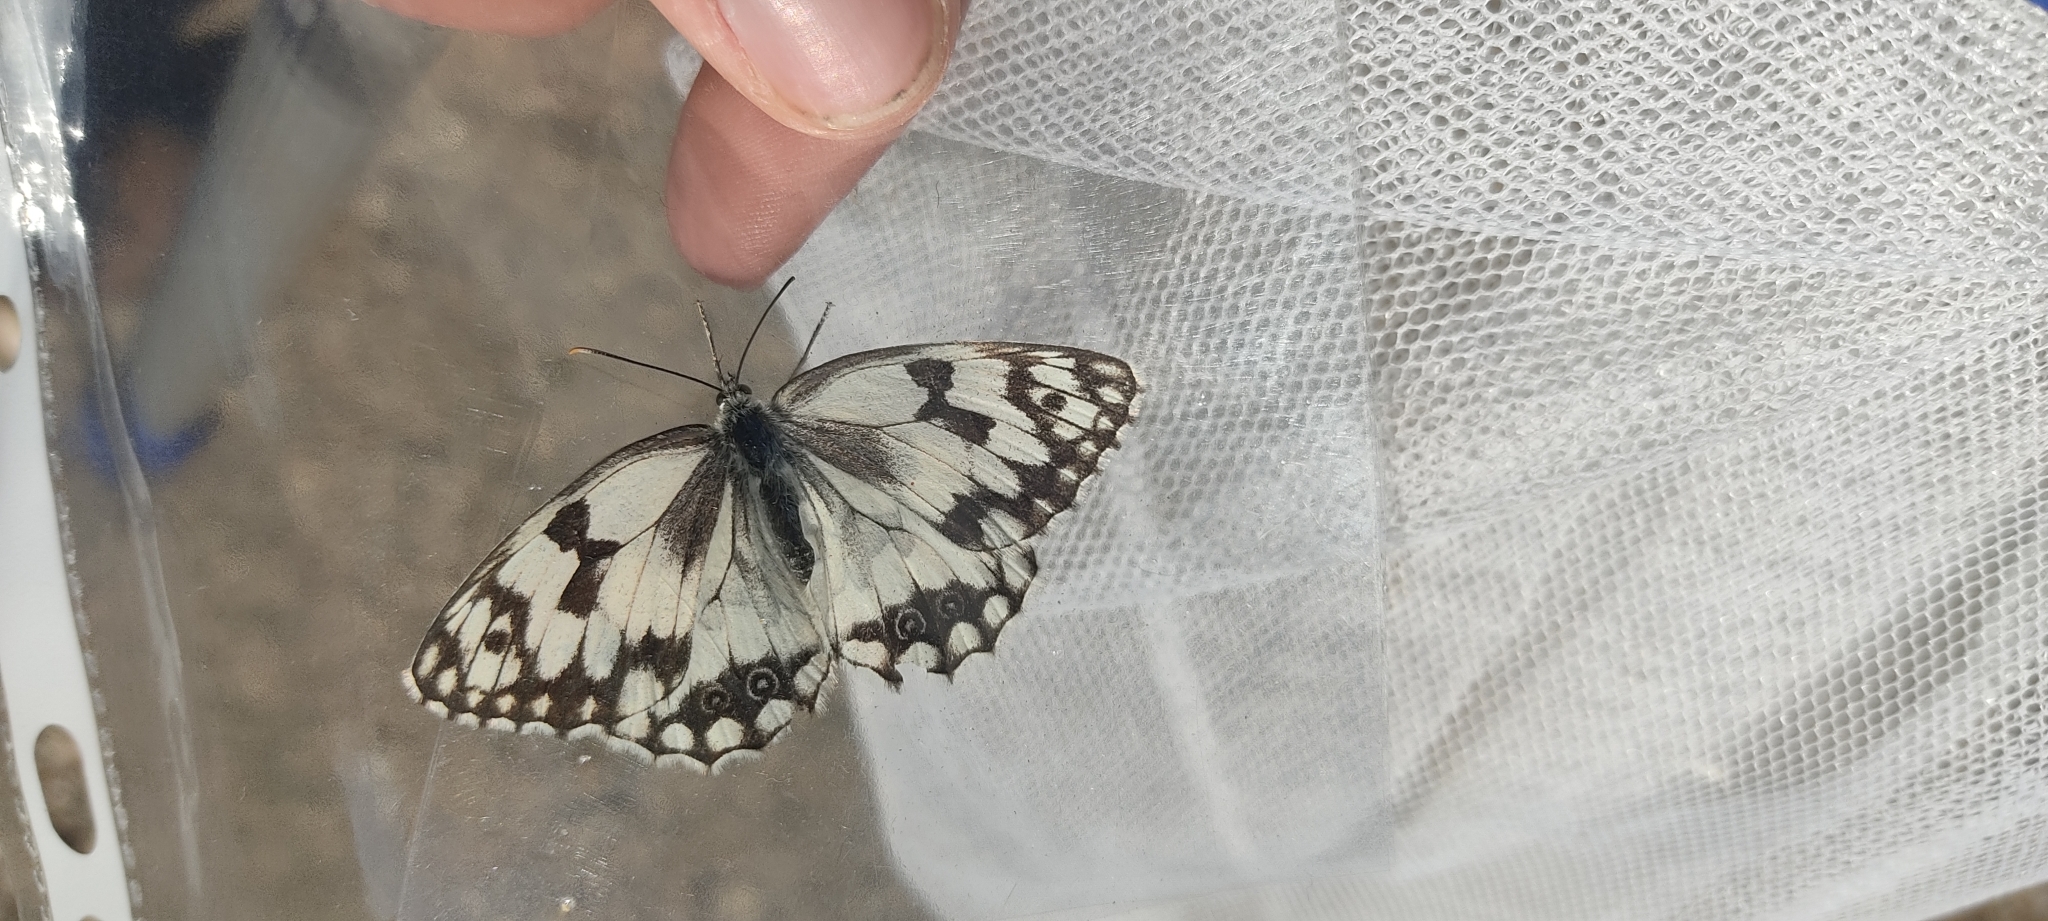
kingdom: Animalia
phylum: Arthropoda
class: Insecta
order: Lepidoptera
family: Nymphalidae
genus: Melanargia
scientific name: Melanargia lachesis
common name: Iberian marbled white
